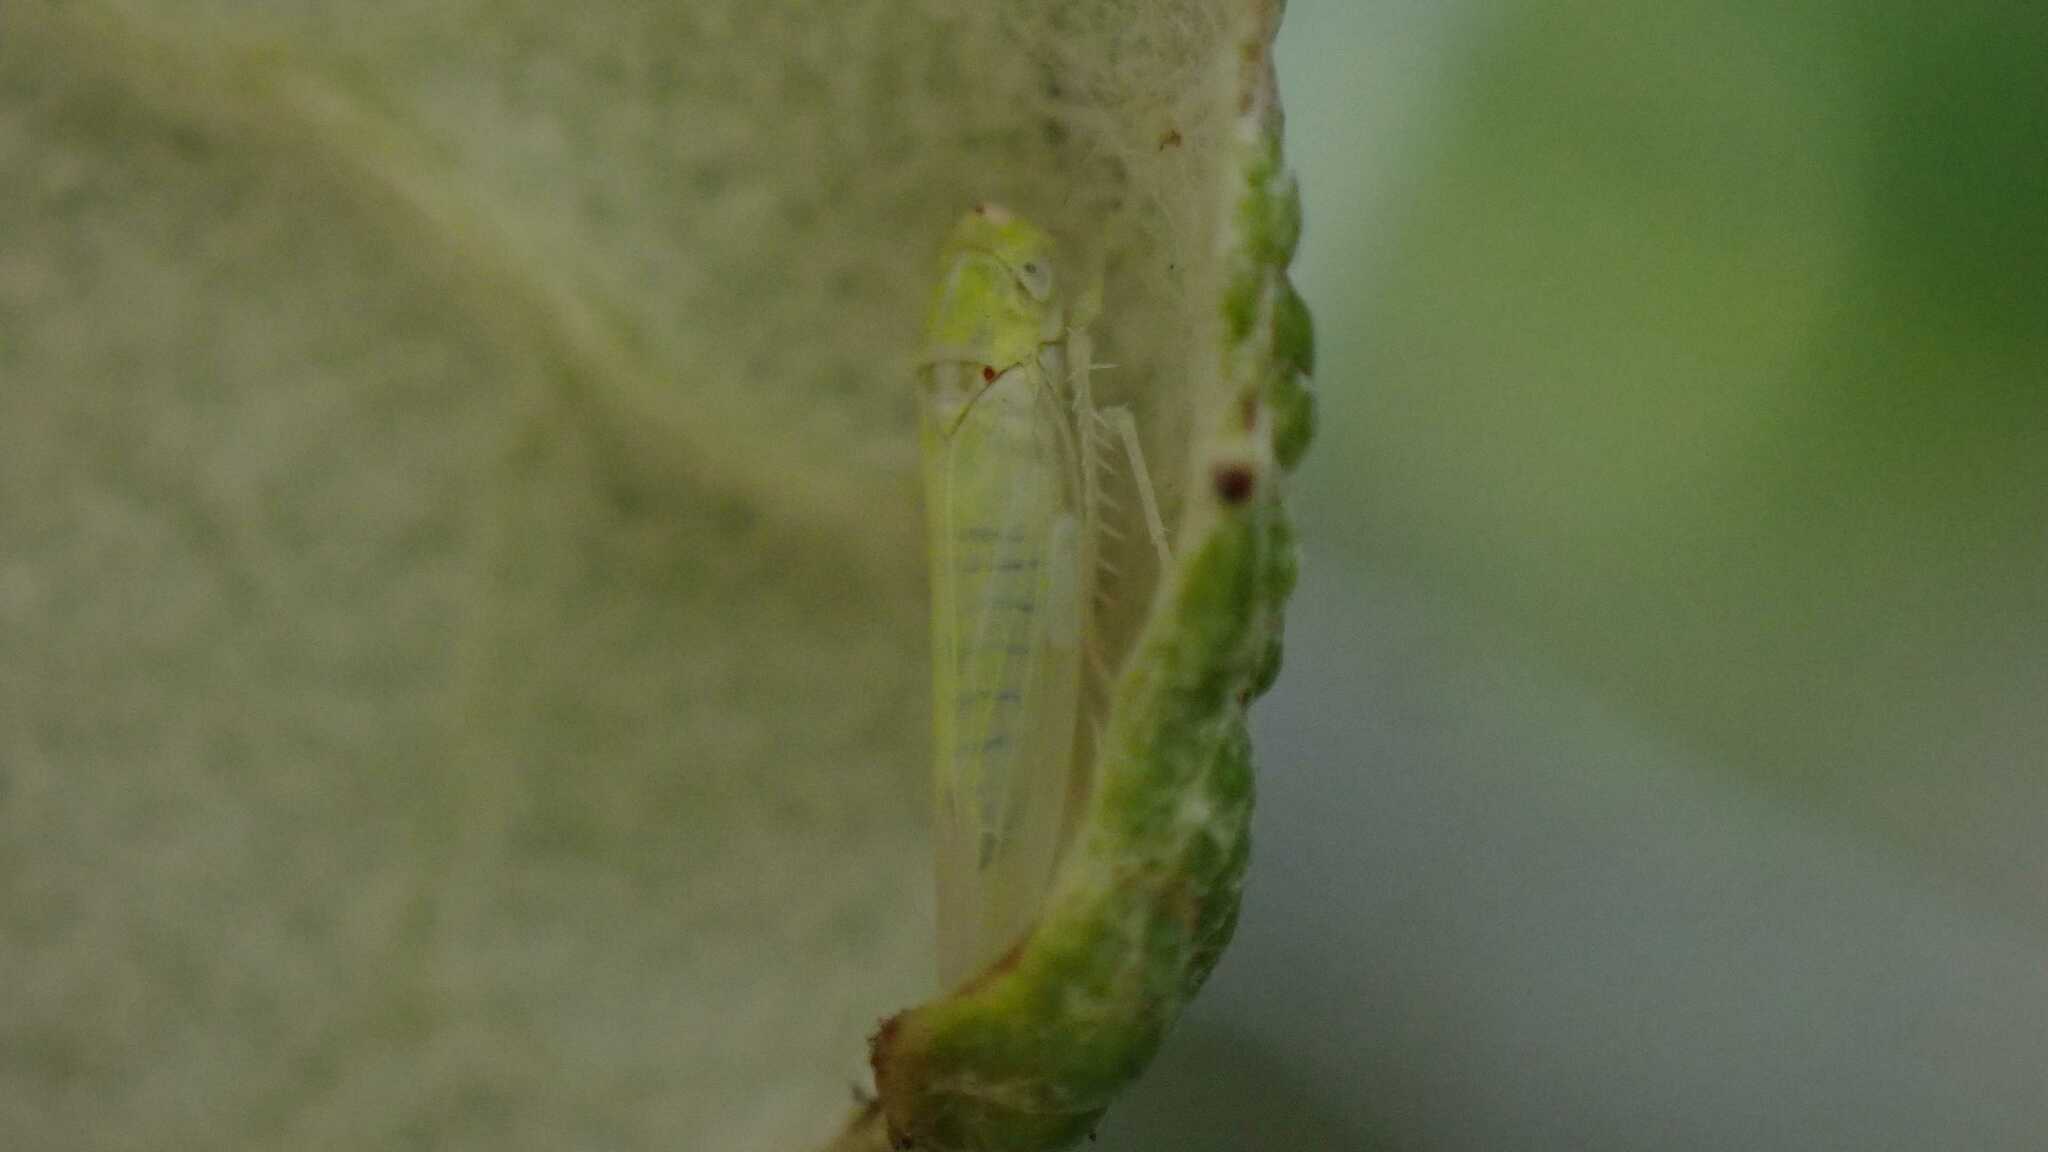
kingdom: Animalia
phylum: Arthropoda
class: Insecta
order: Hemiptera
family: Cicadellidae
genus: Zygina
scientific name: Zygina nivea
